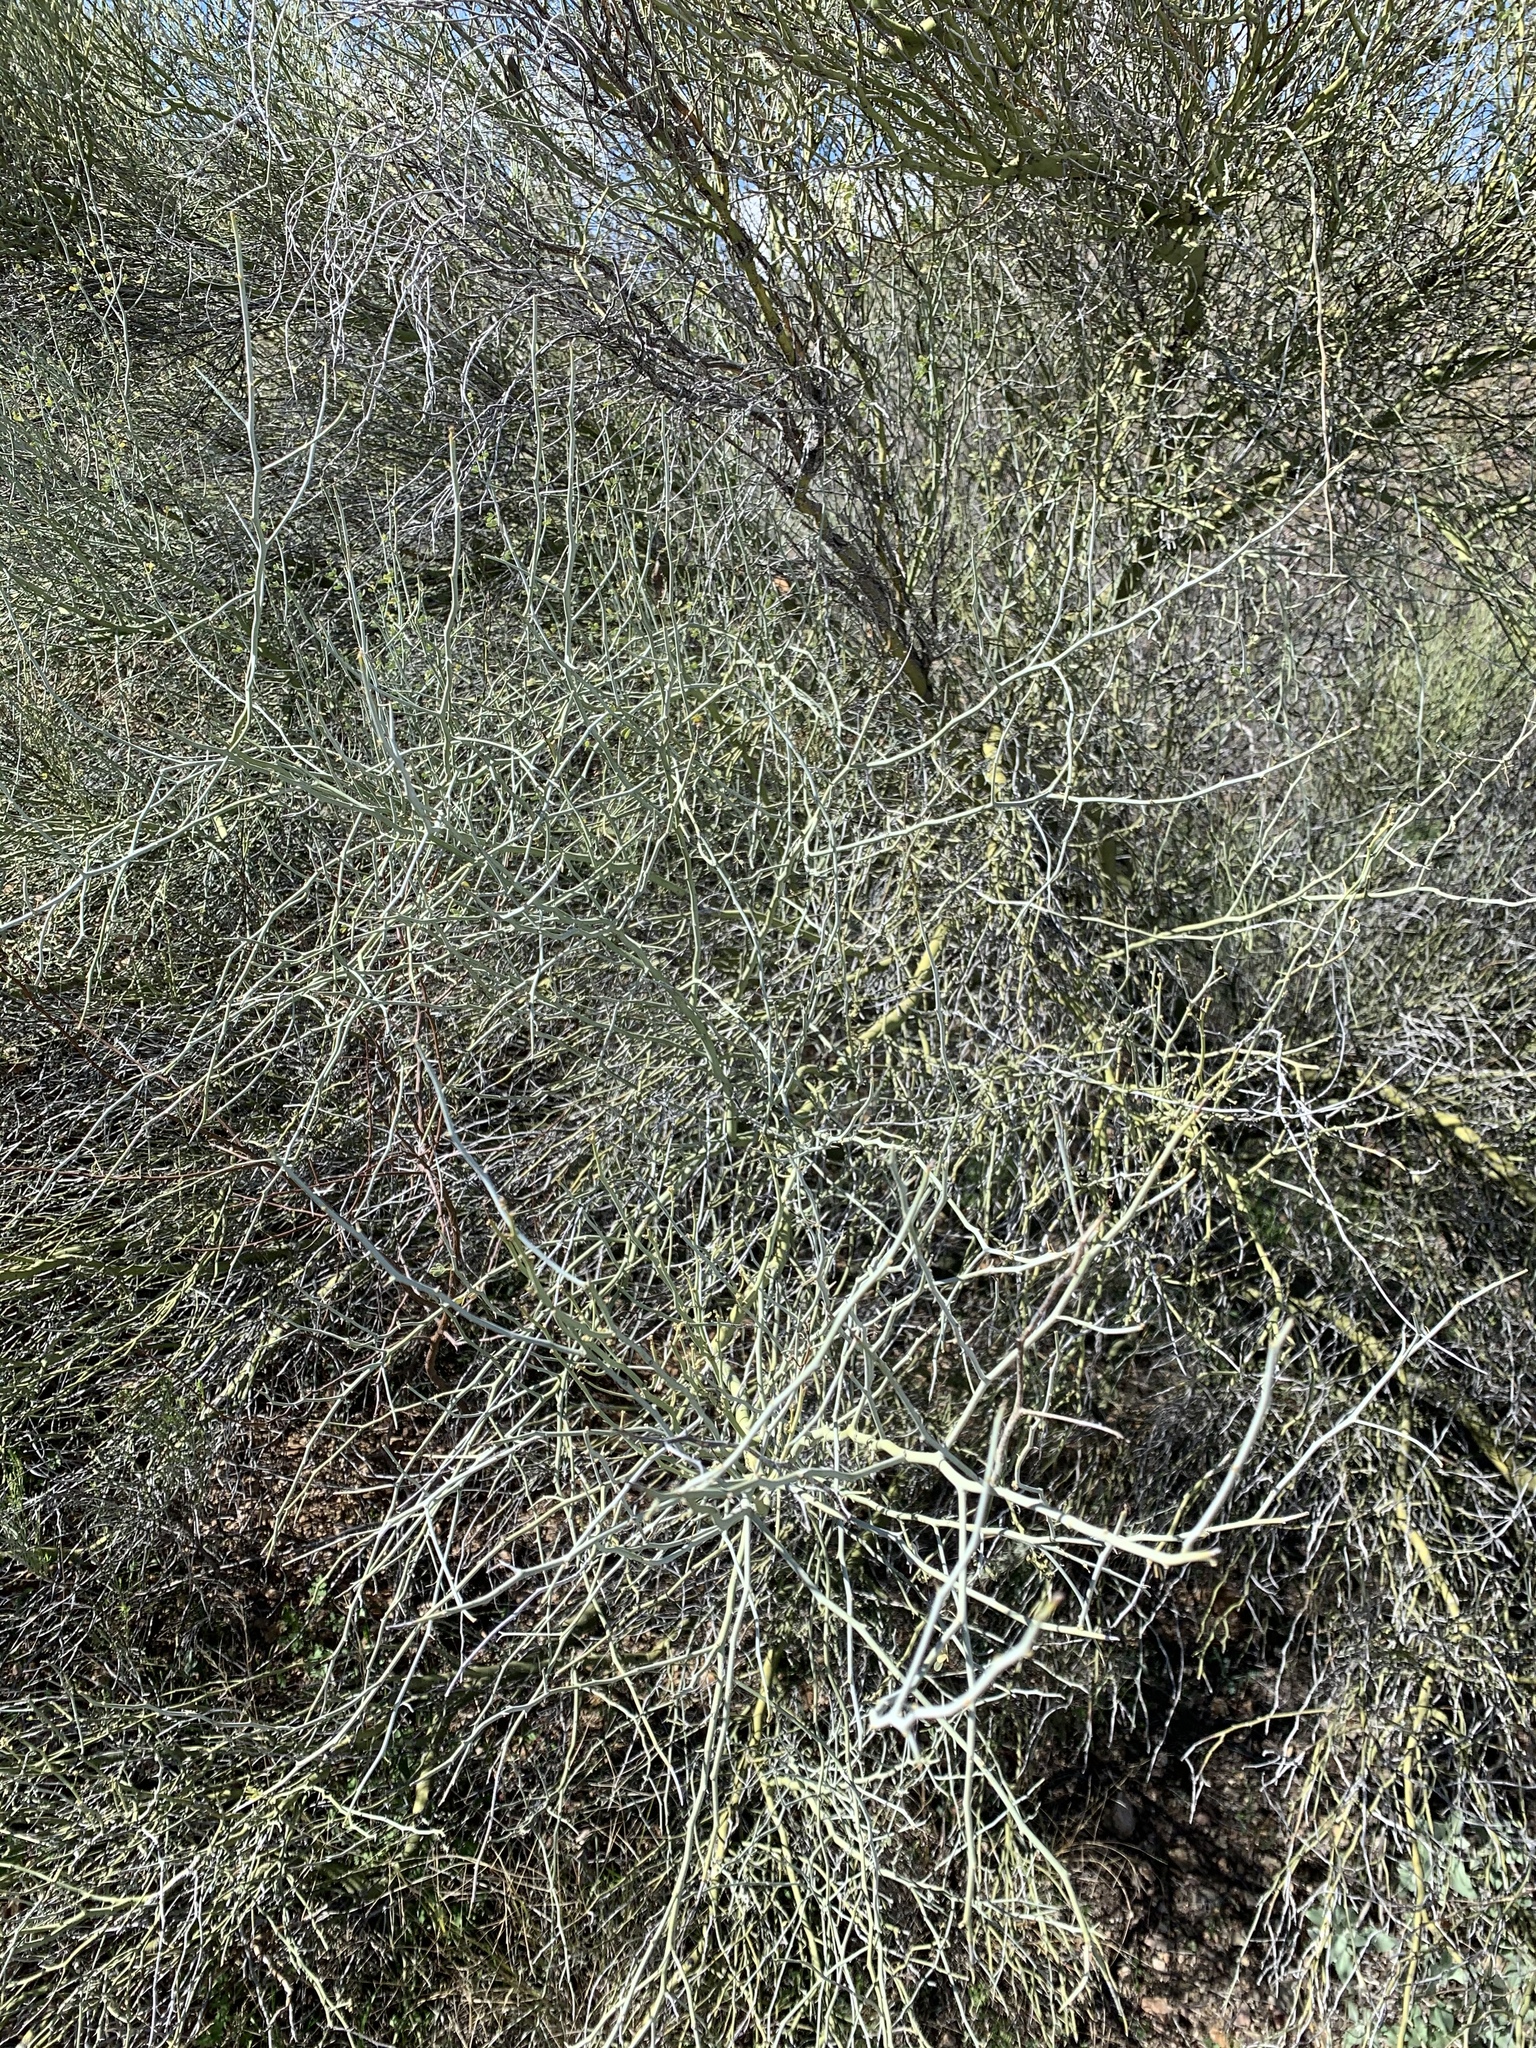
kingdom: Plantae
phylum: Tracheophyta
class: Magnoliopsida
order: Fabales
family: Fabaceae
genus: Parkinsonia
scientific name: Parkinsonia florida
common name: Blue paloverde
